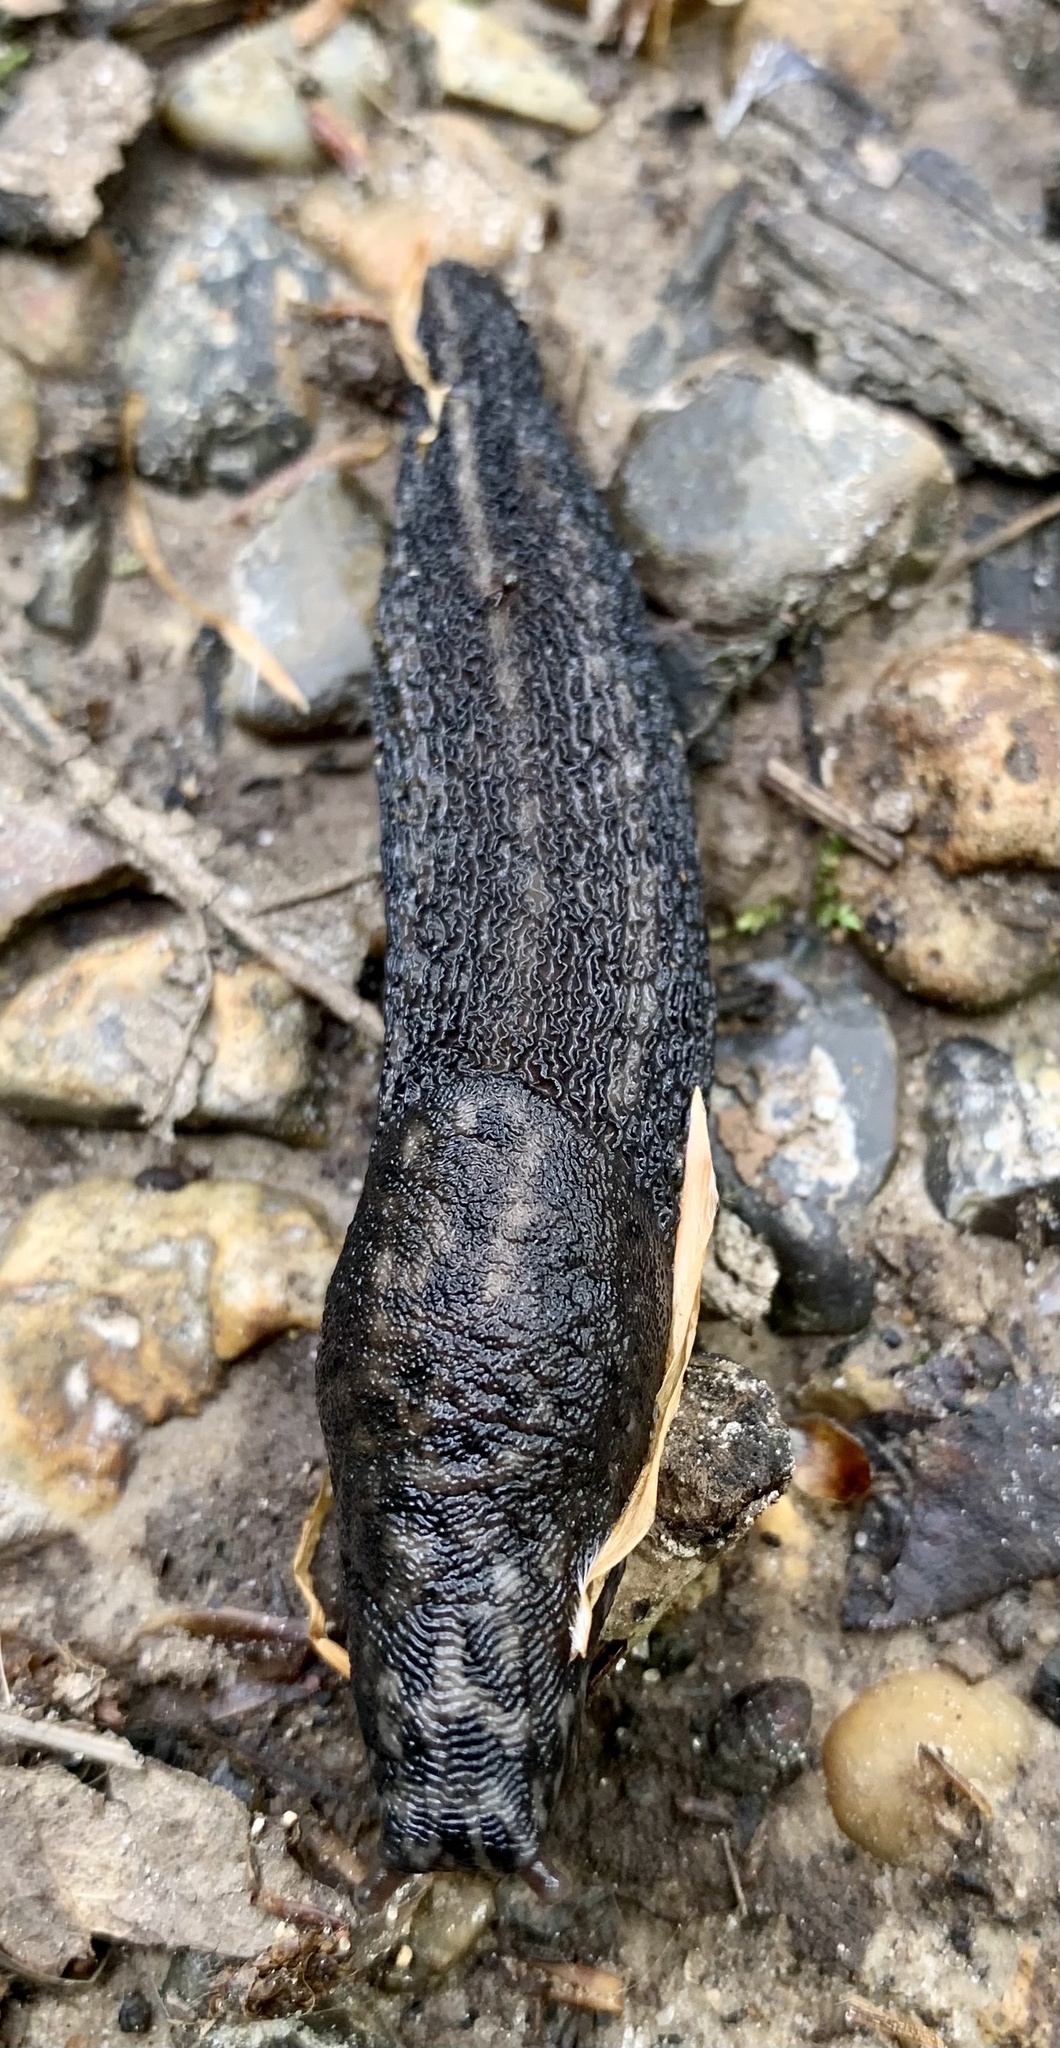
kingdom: Animalia
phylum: Mollusca
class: Gastropoda
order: Stylommatophora
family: Limacidae
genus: Limax
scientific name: Limax maximus
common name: Great grey slug
